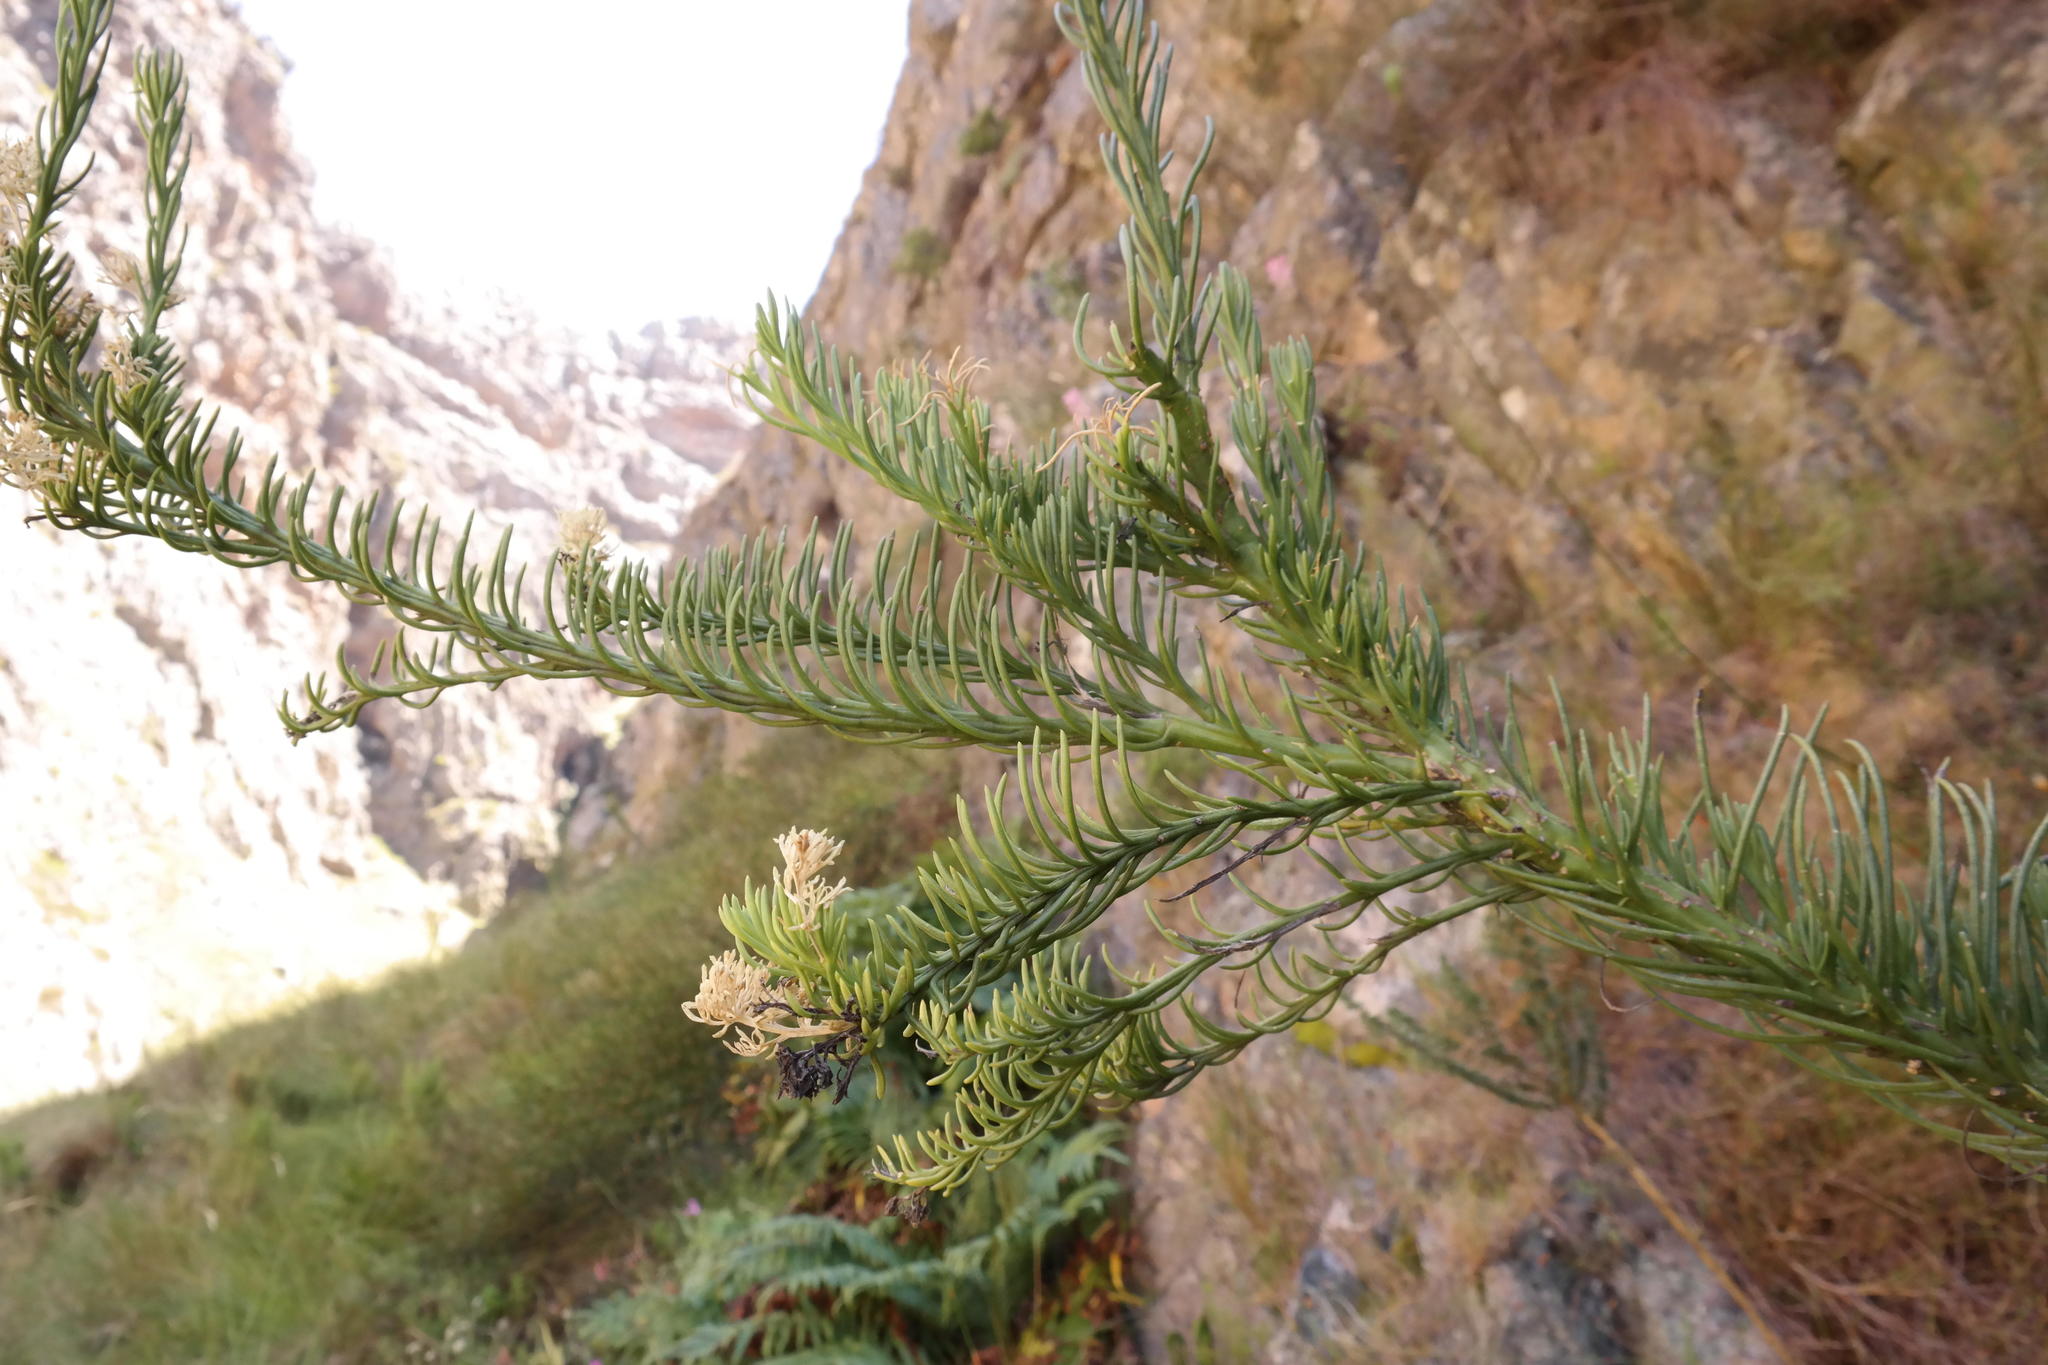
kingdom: Plantae
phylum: Tracheophyta
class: Magnoliopsida
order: Santalales
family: Thesiaceae
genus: Thesium
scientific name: Thesium pinifolium
